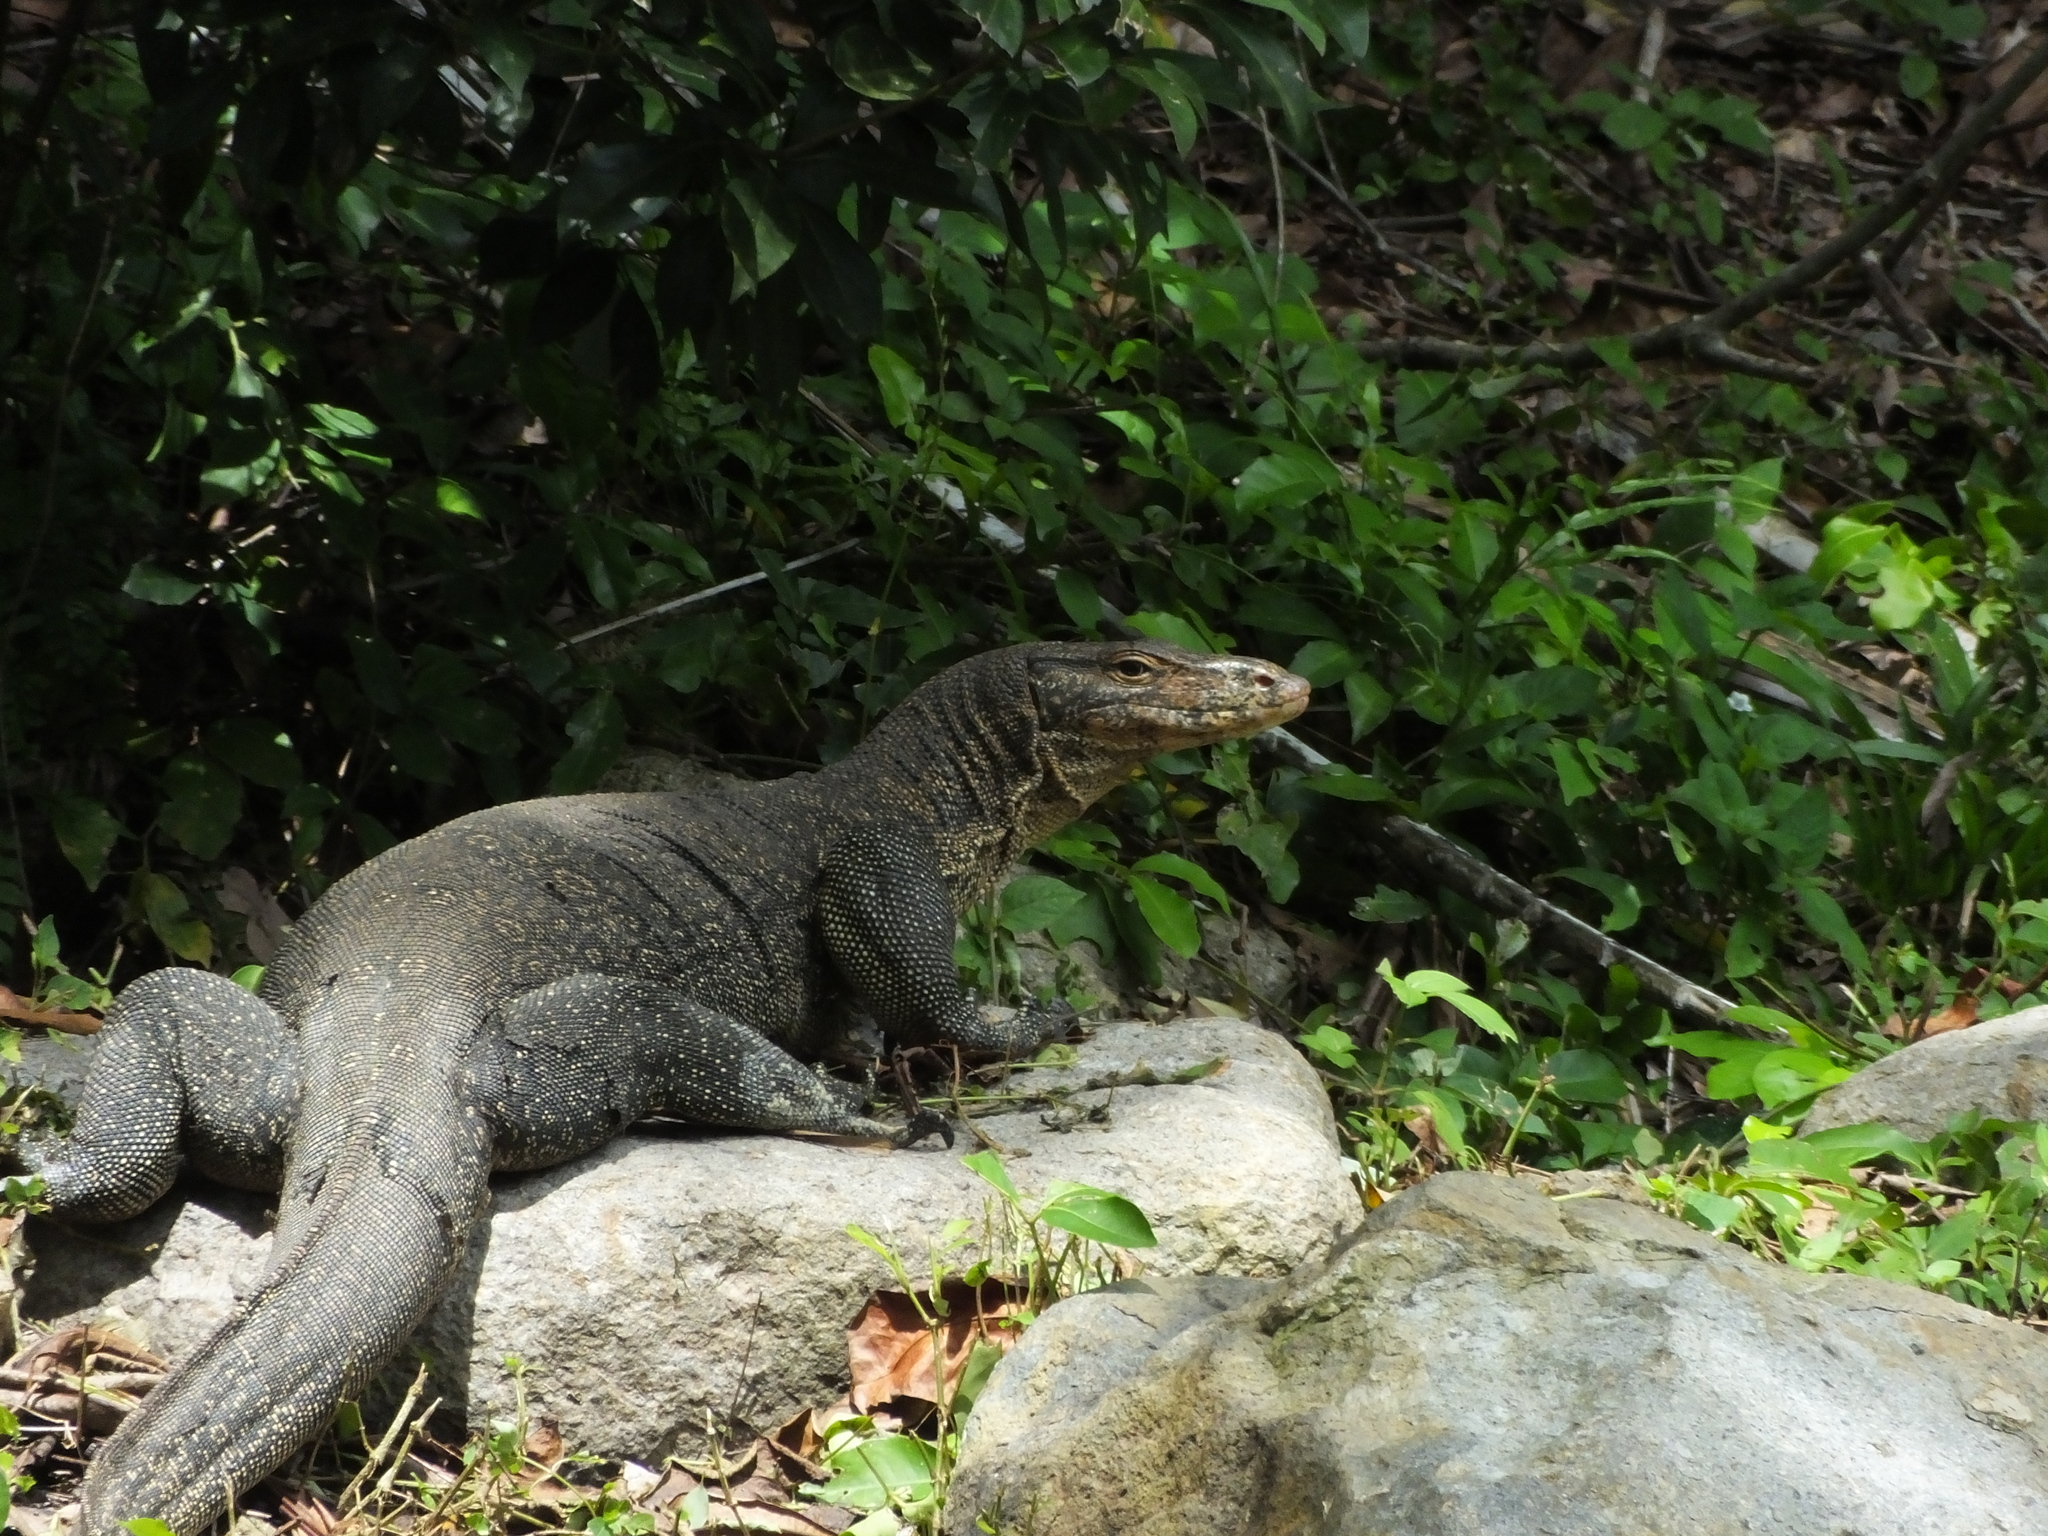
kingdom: Animalia
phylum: Chordata
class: Squamata
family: Varanidae
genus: Varanus
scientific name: Varanus salvator
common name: Common water monitor
